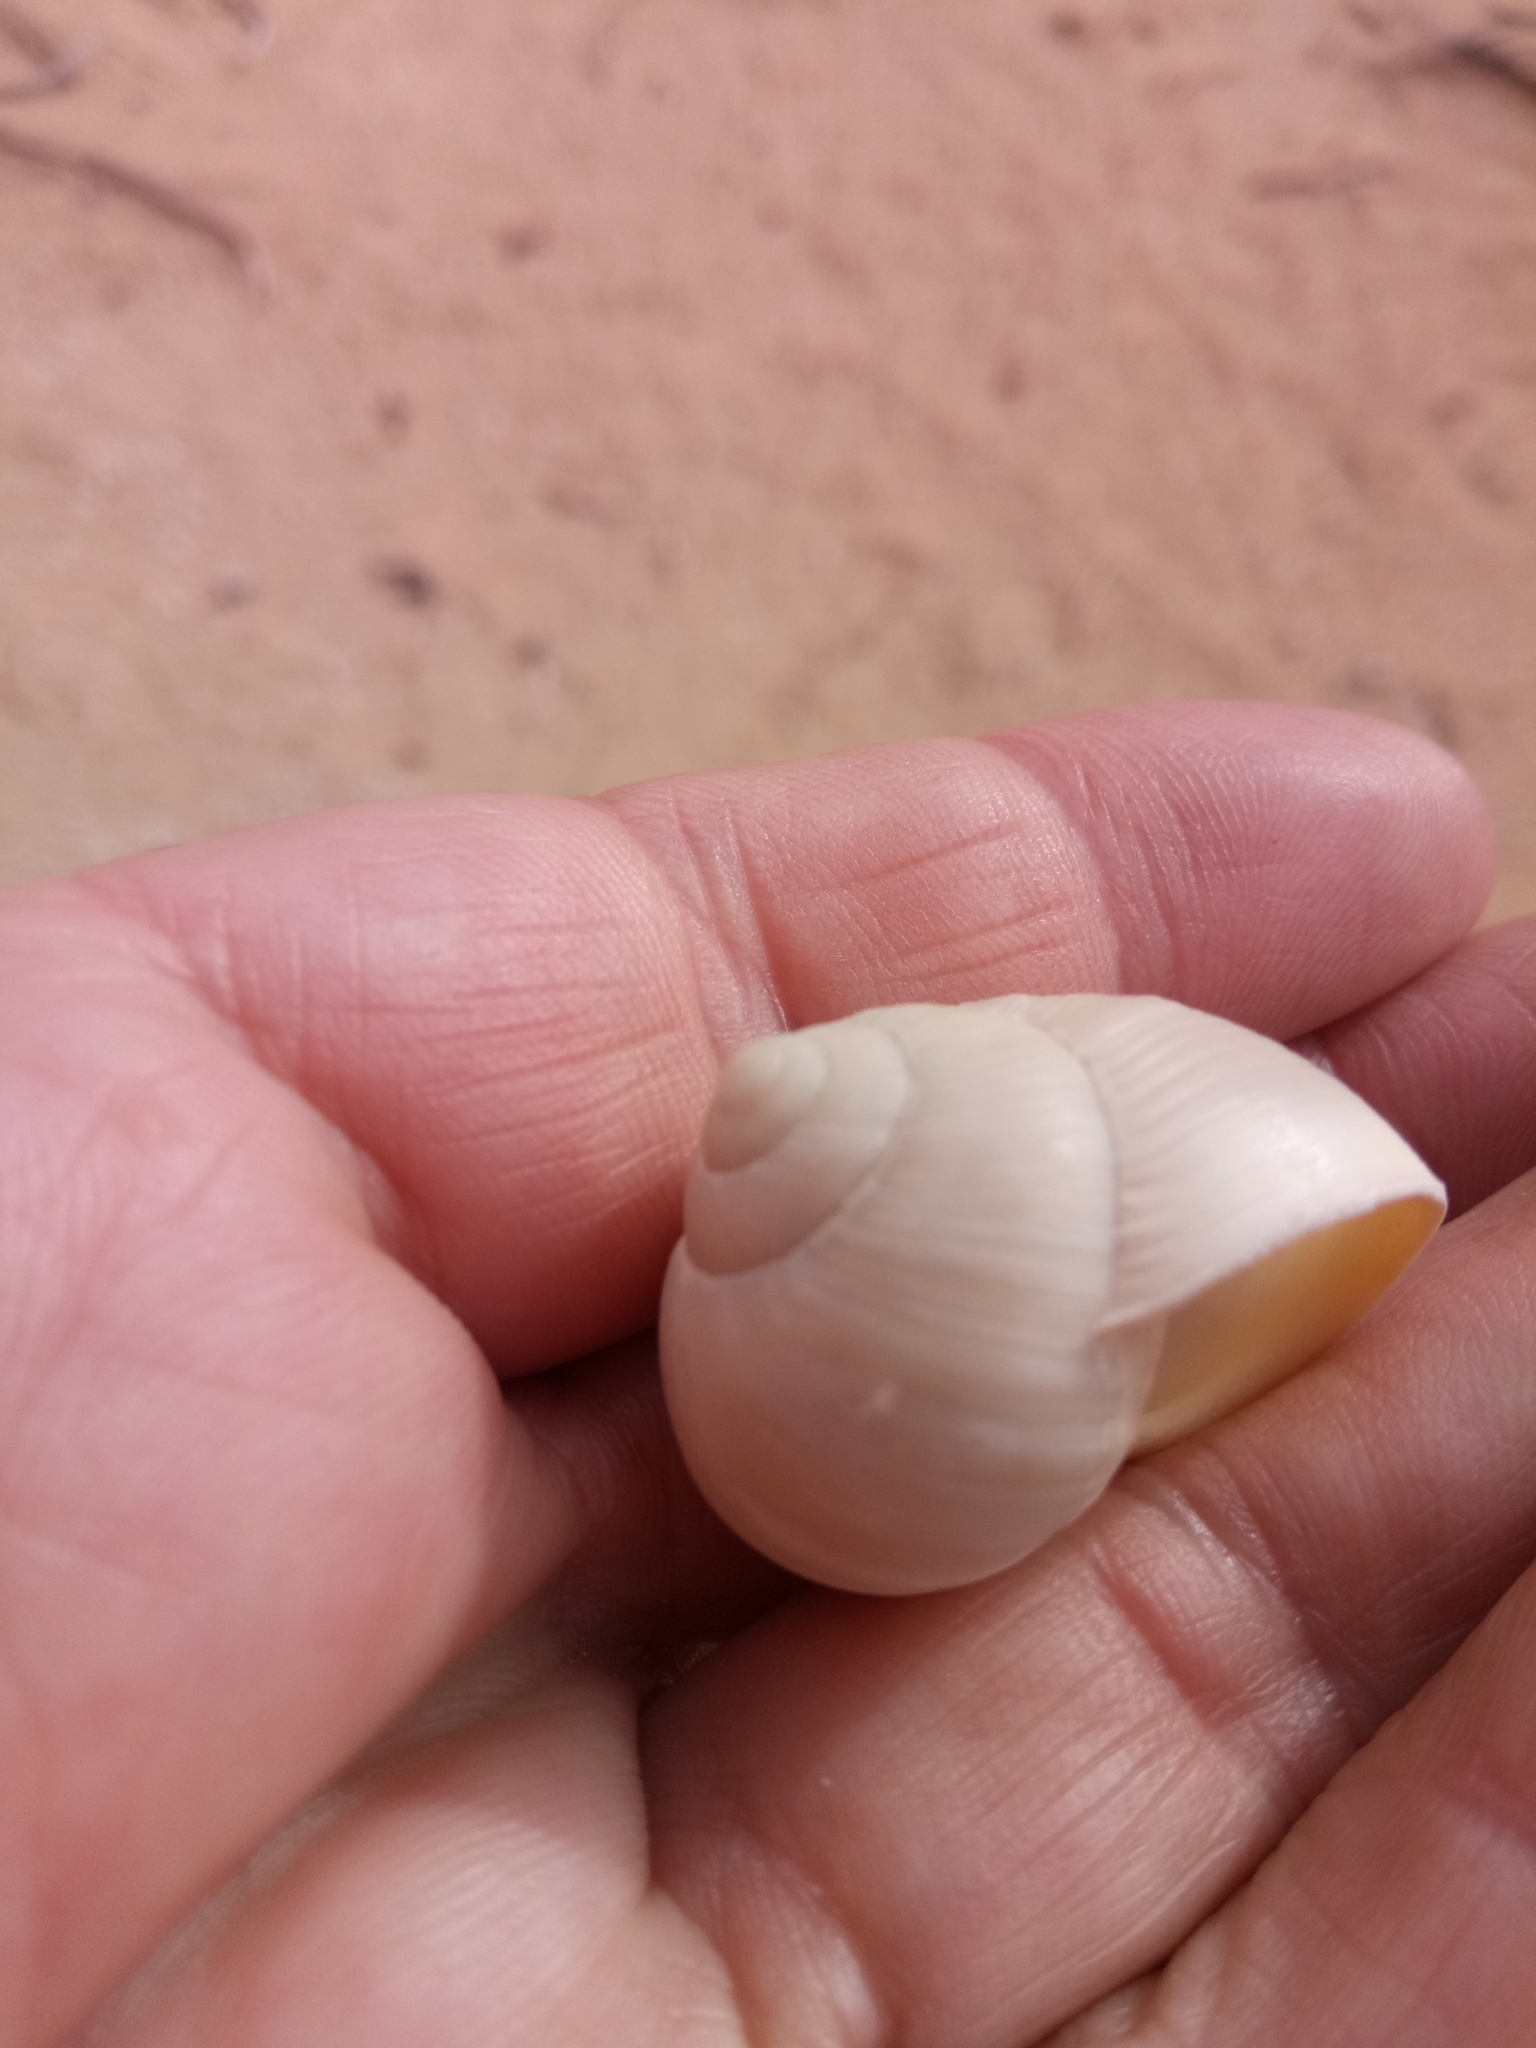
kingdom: Animalia
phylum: Mollusca
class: Gastropoda
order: Stylommatophora
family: Helicidae
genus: Helix
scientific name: Helix melanostoma
